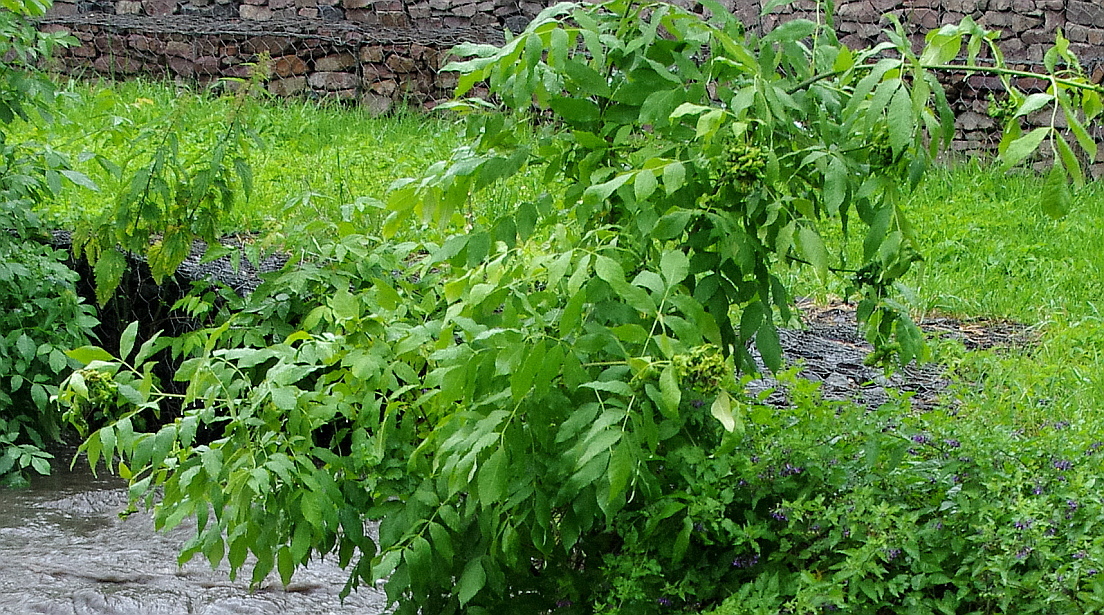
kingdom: Plantae
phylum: Tracheophyta
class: Magnoliopsida
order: Lamiales
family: Oleaceae
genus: Fraxinus
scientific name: Fraxinus pennsylvanica
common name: Green ash
